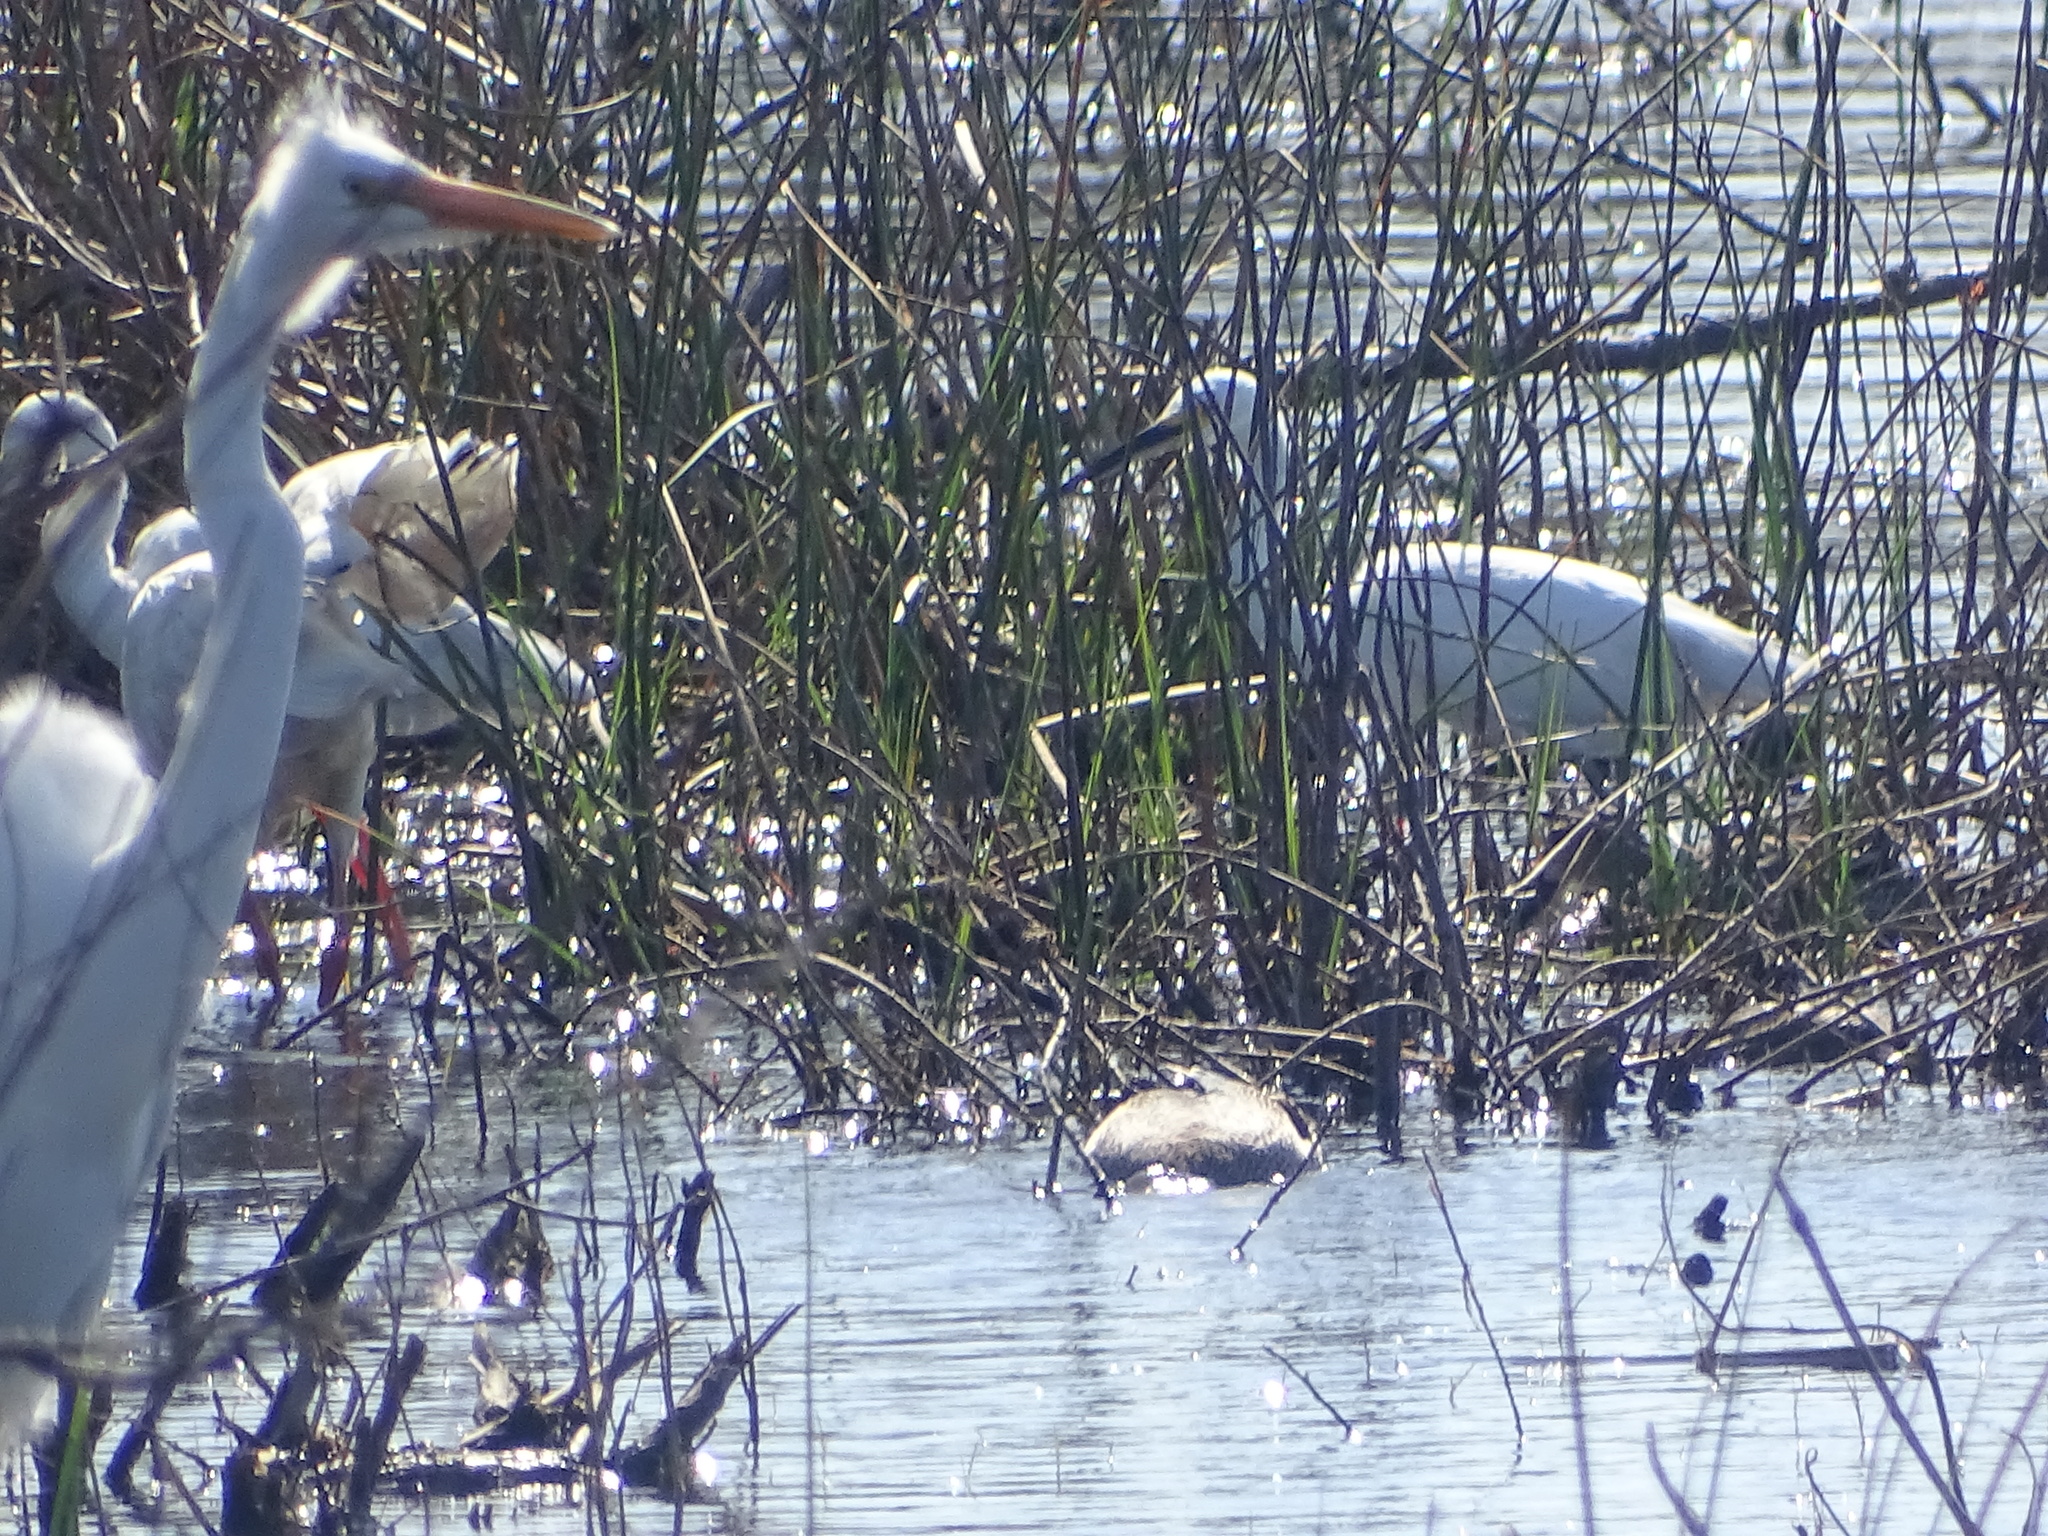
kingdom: Animalia
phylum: Chordata
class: Aves
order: Pelecaniformes
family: Ardeidae
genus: Ardea
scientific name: Ardea alba
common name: Great egret
